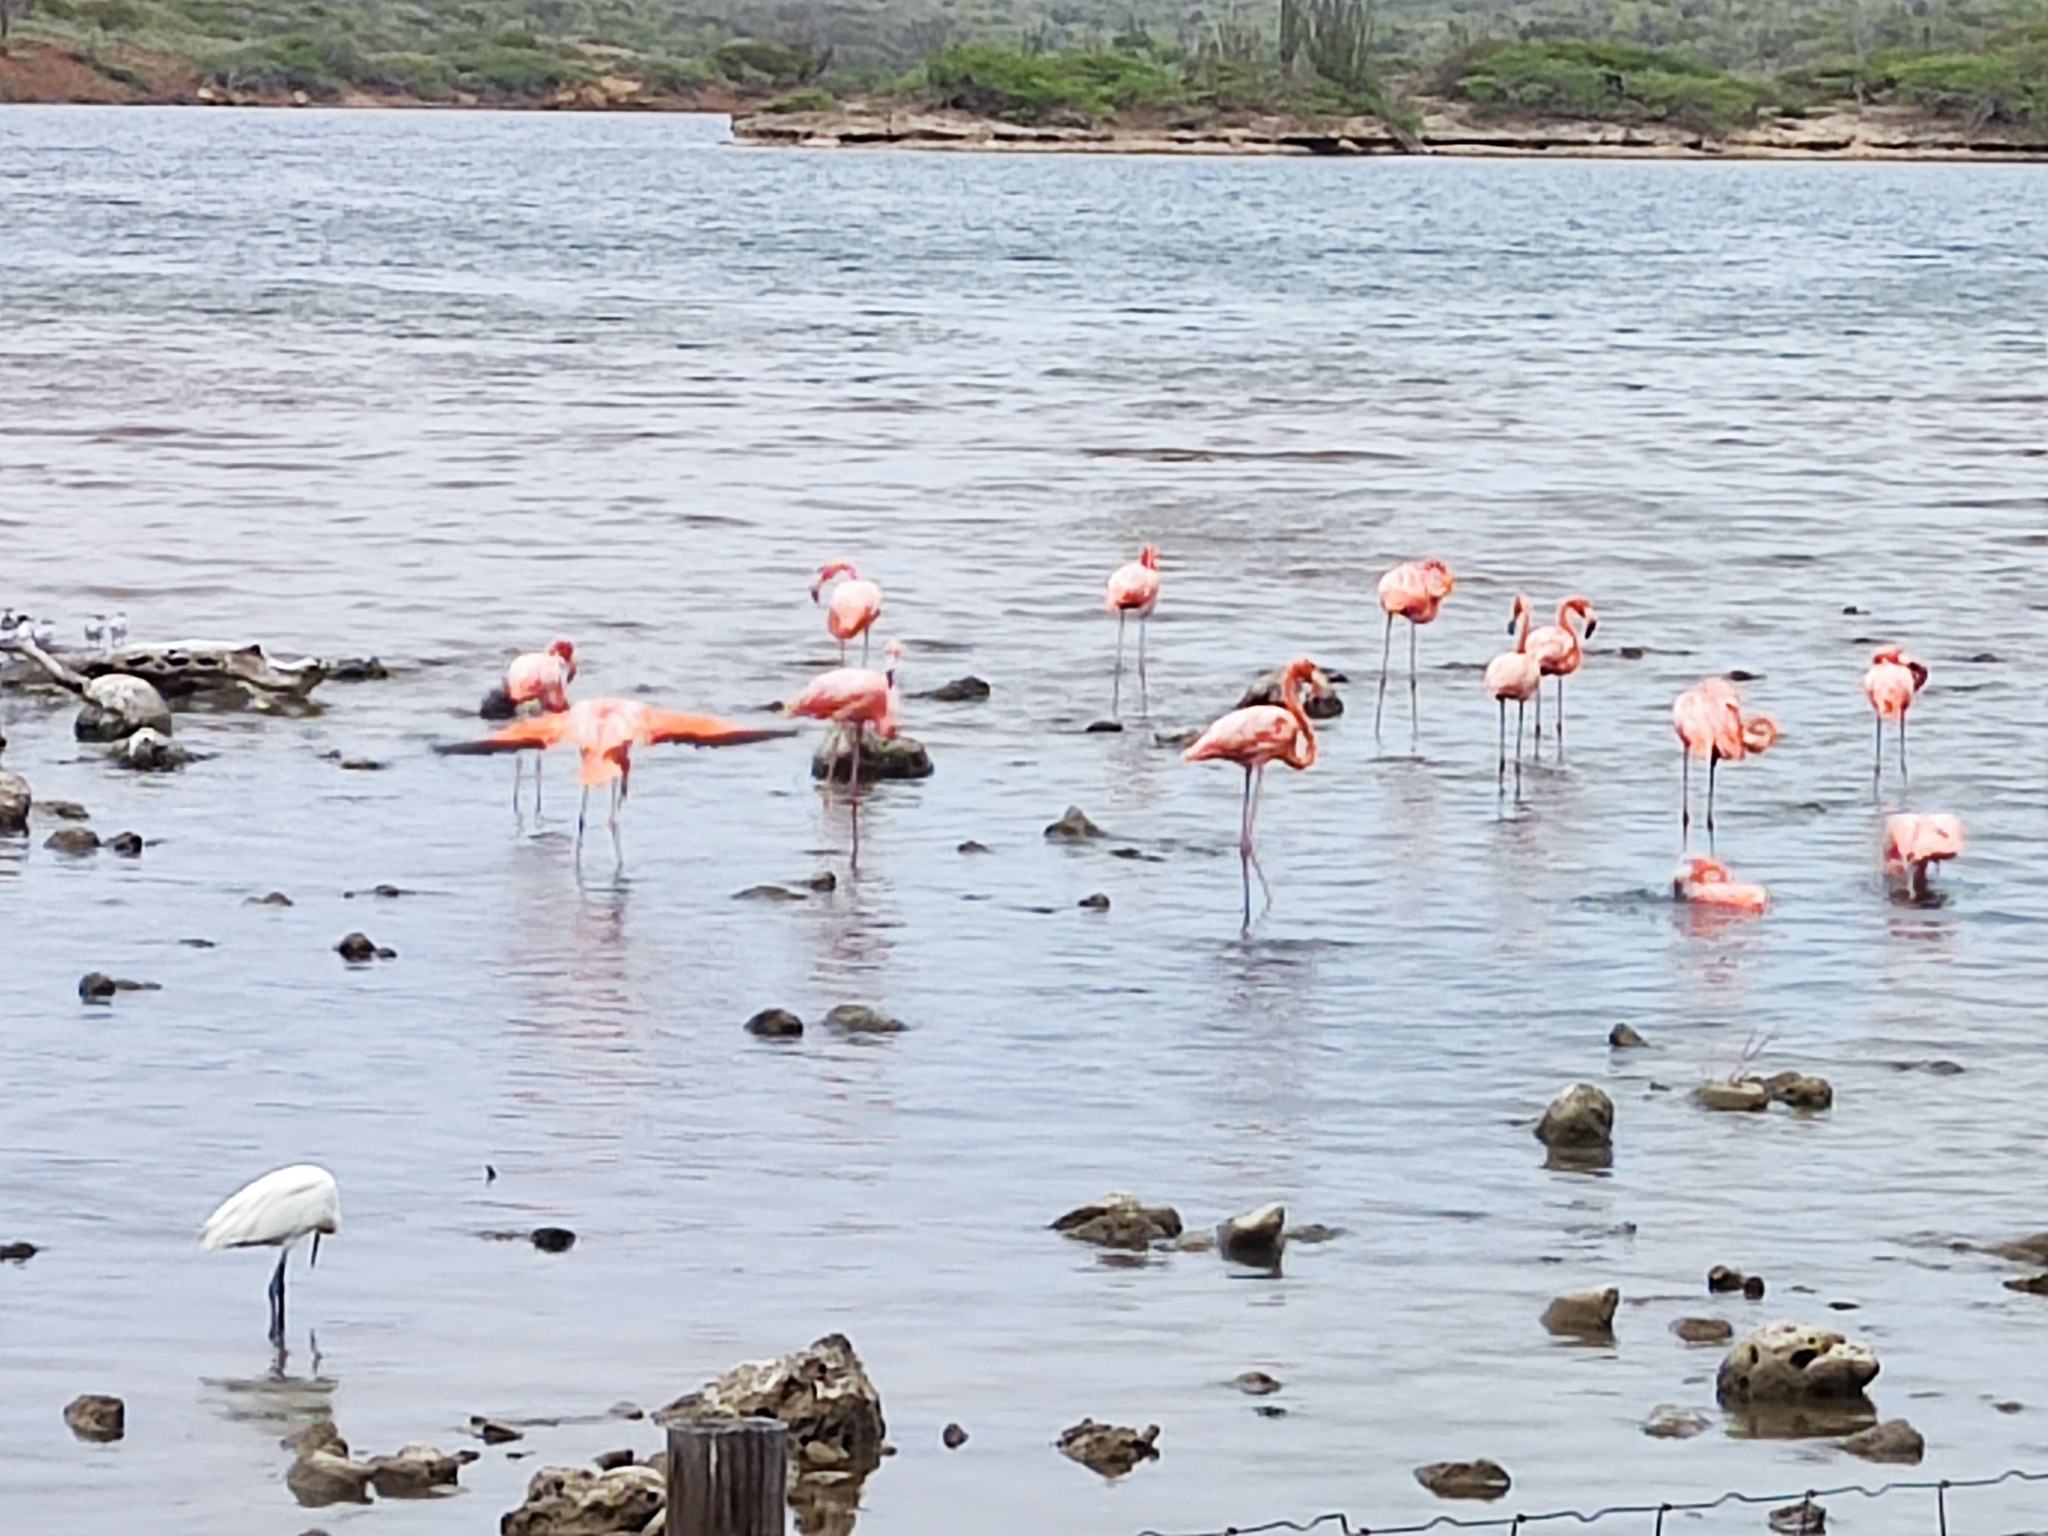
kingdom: Animalia
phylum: Chordata
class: Aves
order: Phoenicopteriformes
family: Phoenicopteridae
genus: Phoenicopterus
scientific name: Phoenicopterus ruber
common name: American flamingo
